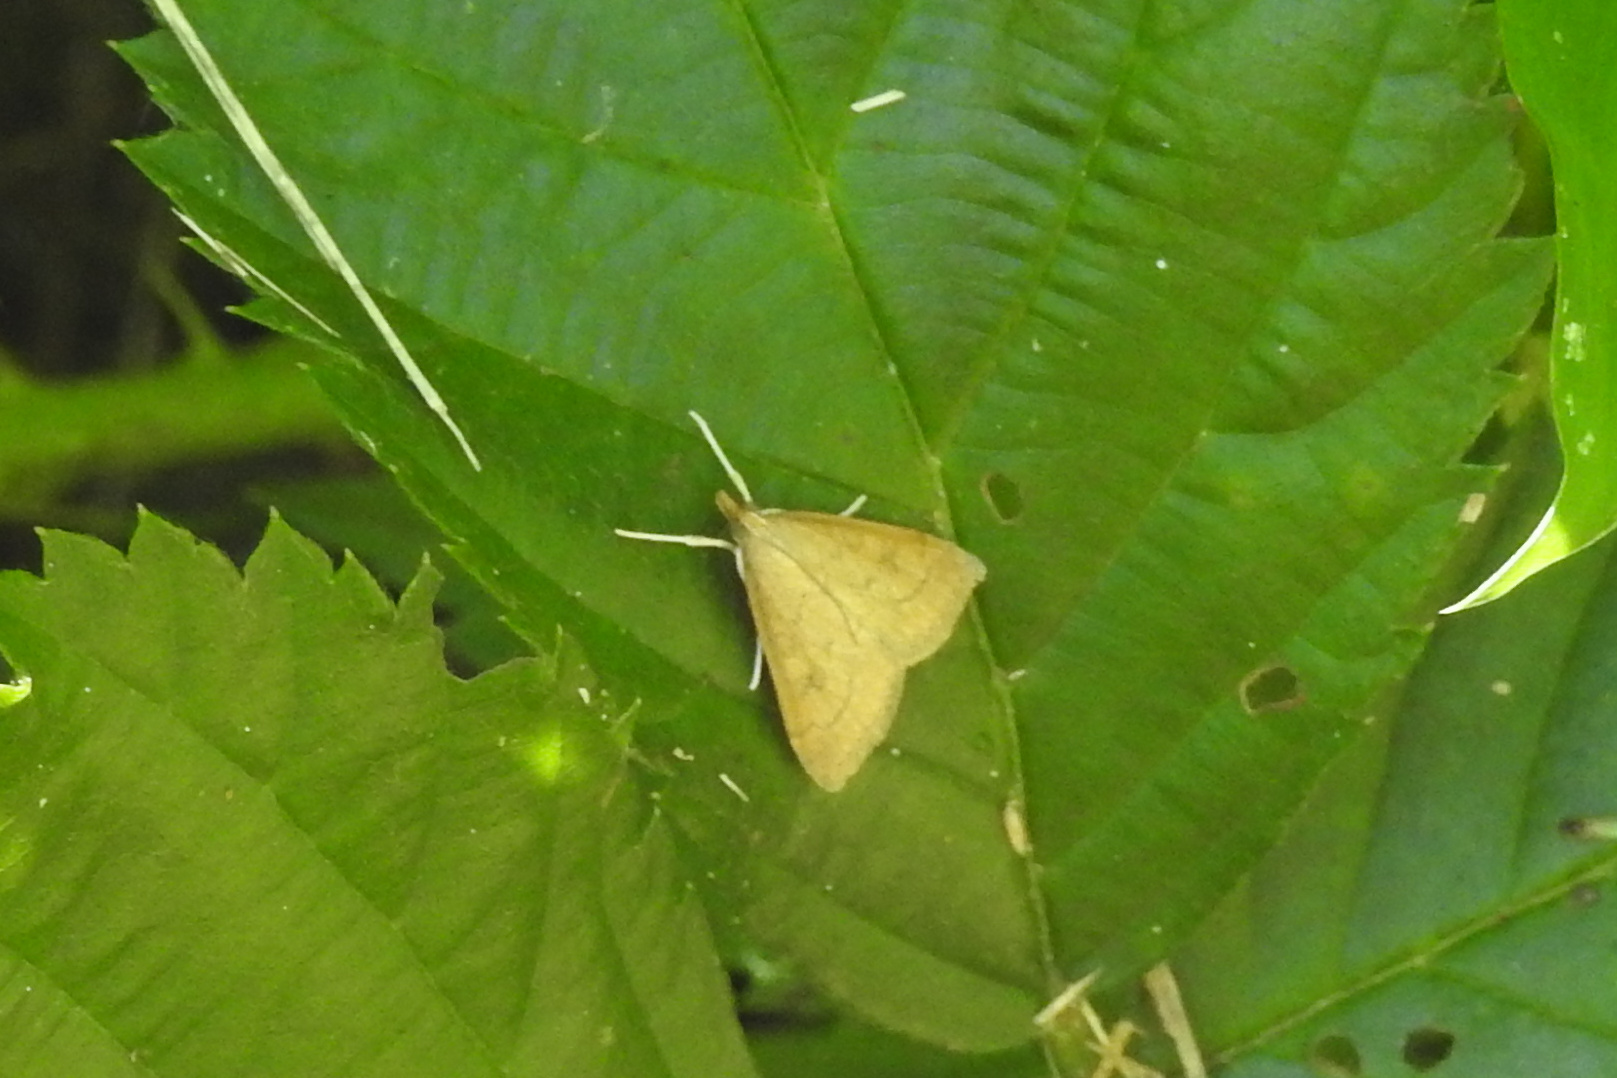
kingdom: Animalia
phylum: Arthropoda
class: Insecta
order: Lepidoptera
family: Crambidae
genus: Udea
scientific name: Udea rubigalis
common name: Celery leaftier moth
